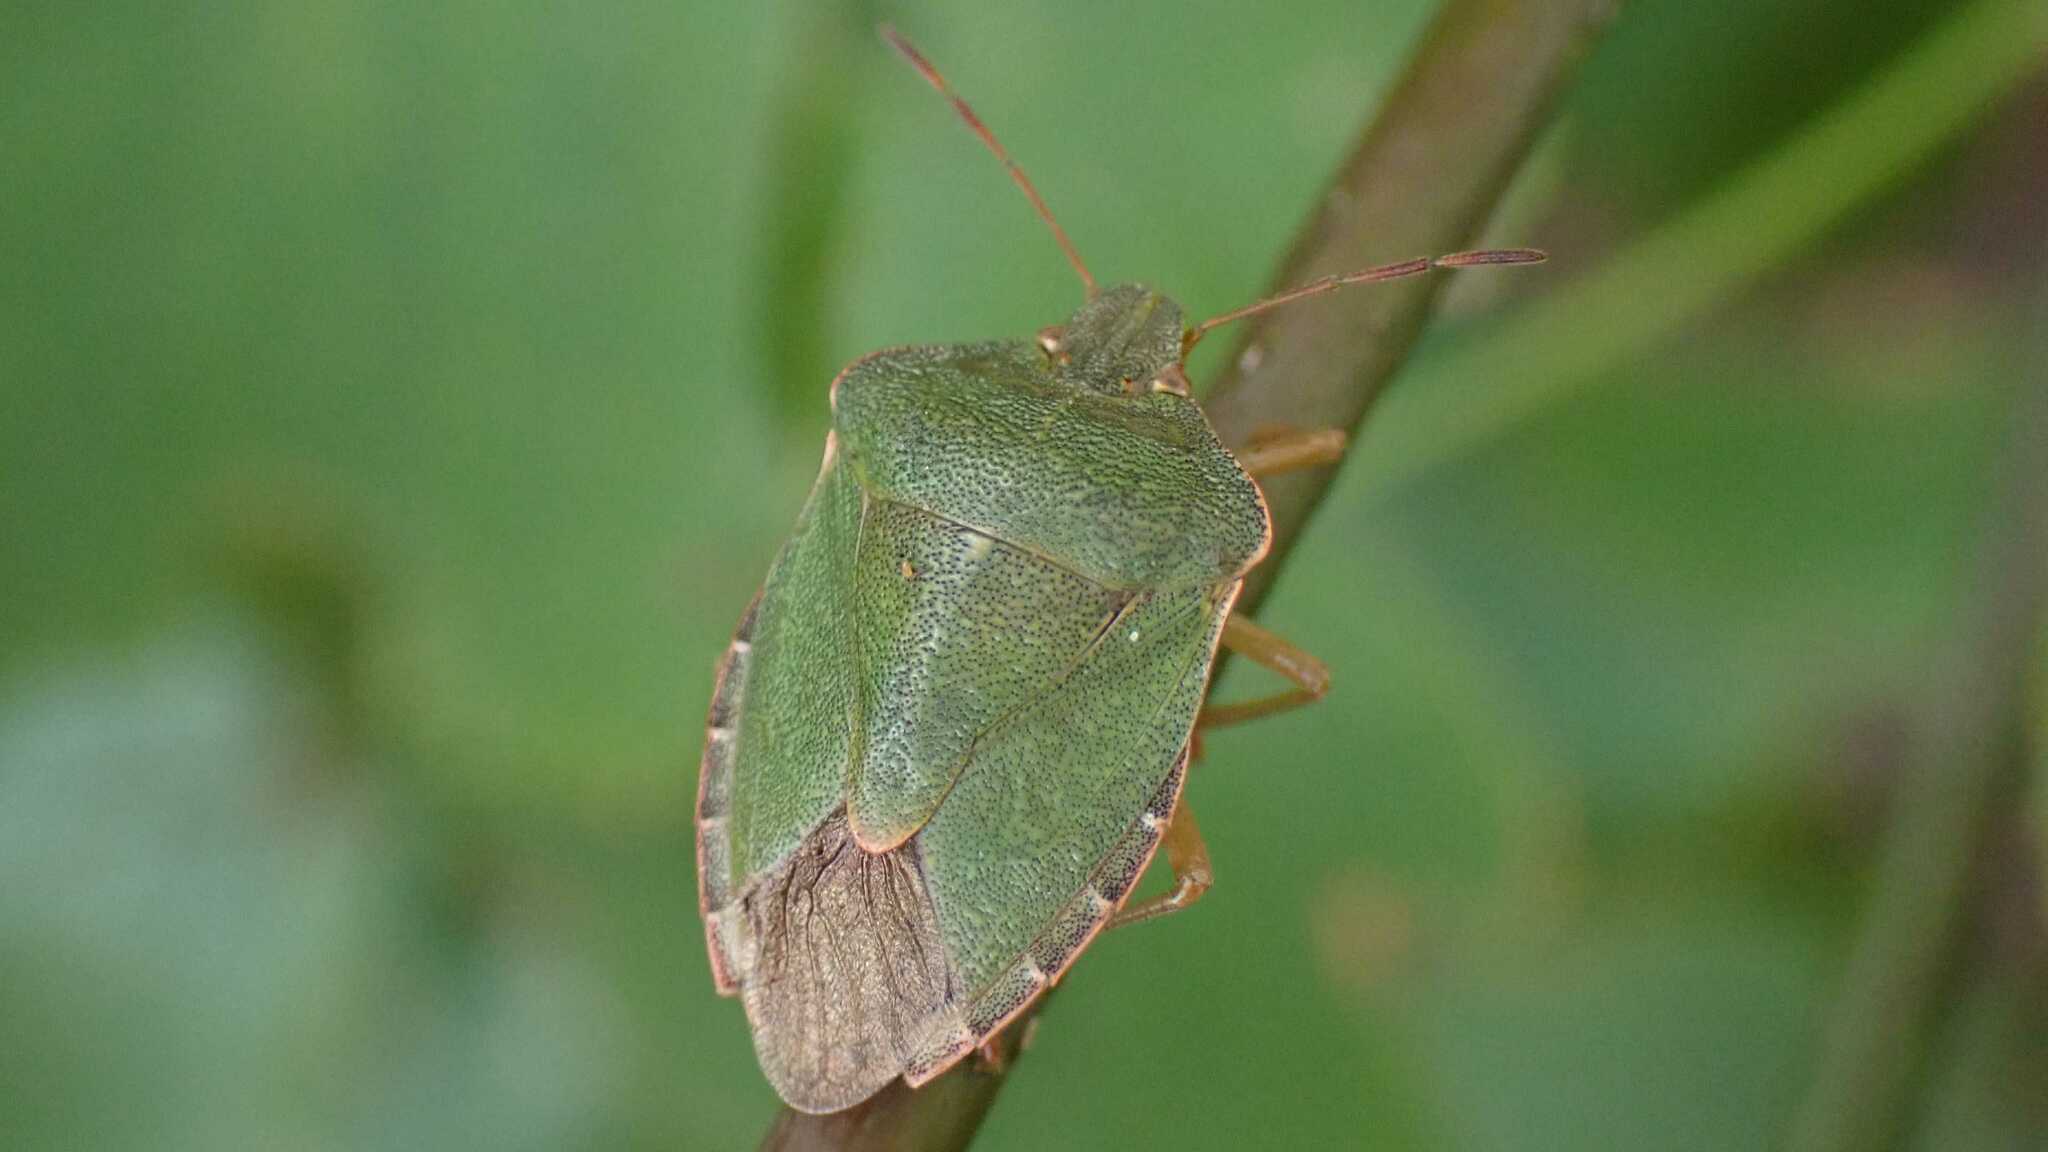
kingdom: Animalia
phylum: Arthropoda
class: Insecta
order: Hemiptera
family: Pentatomidae
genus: Palomena
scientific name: Palomena prasina
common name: Green shieldbug
